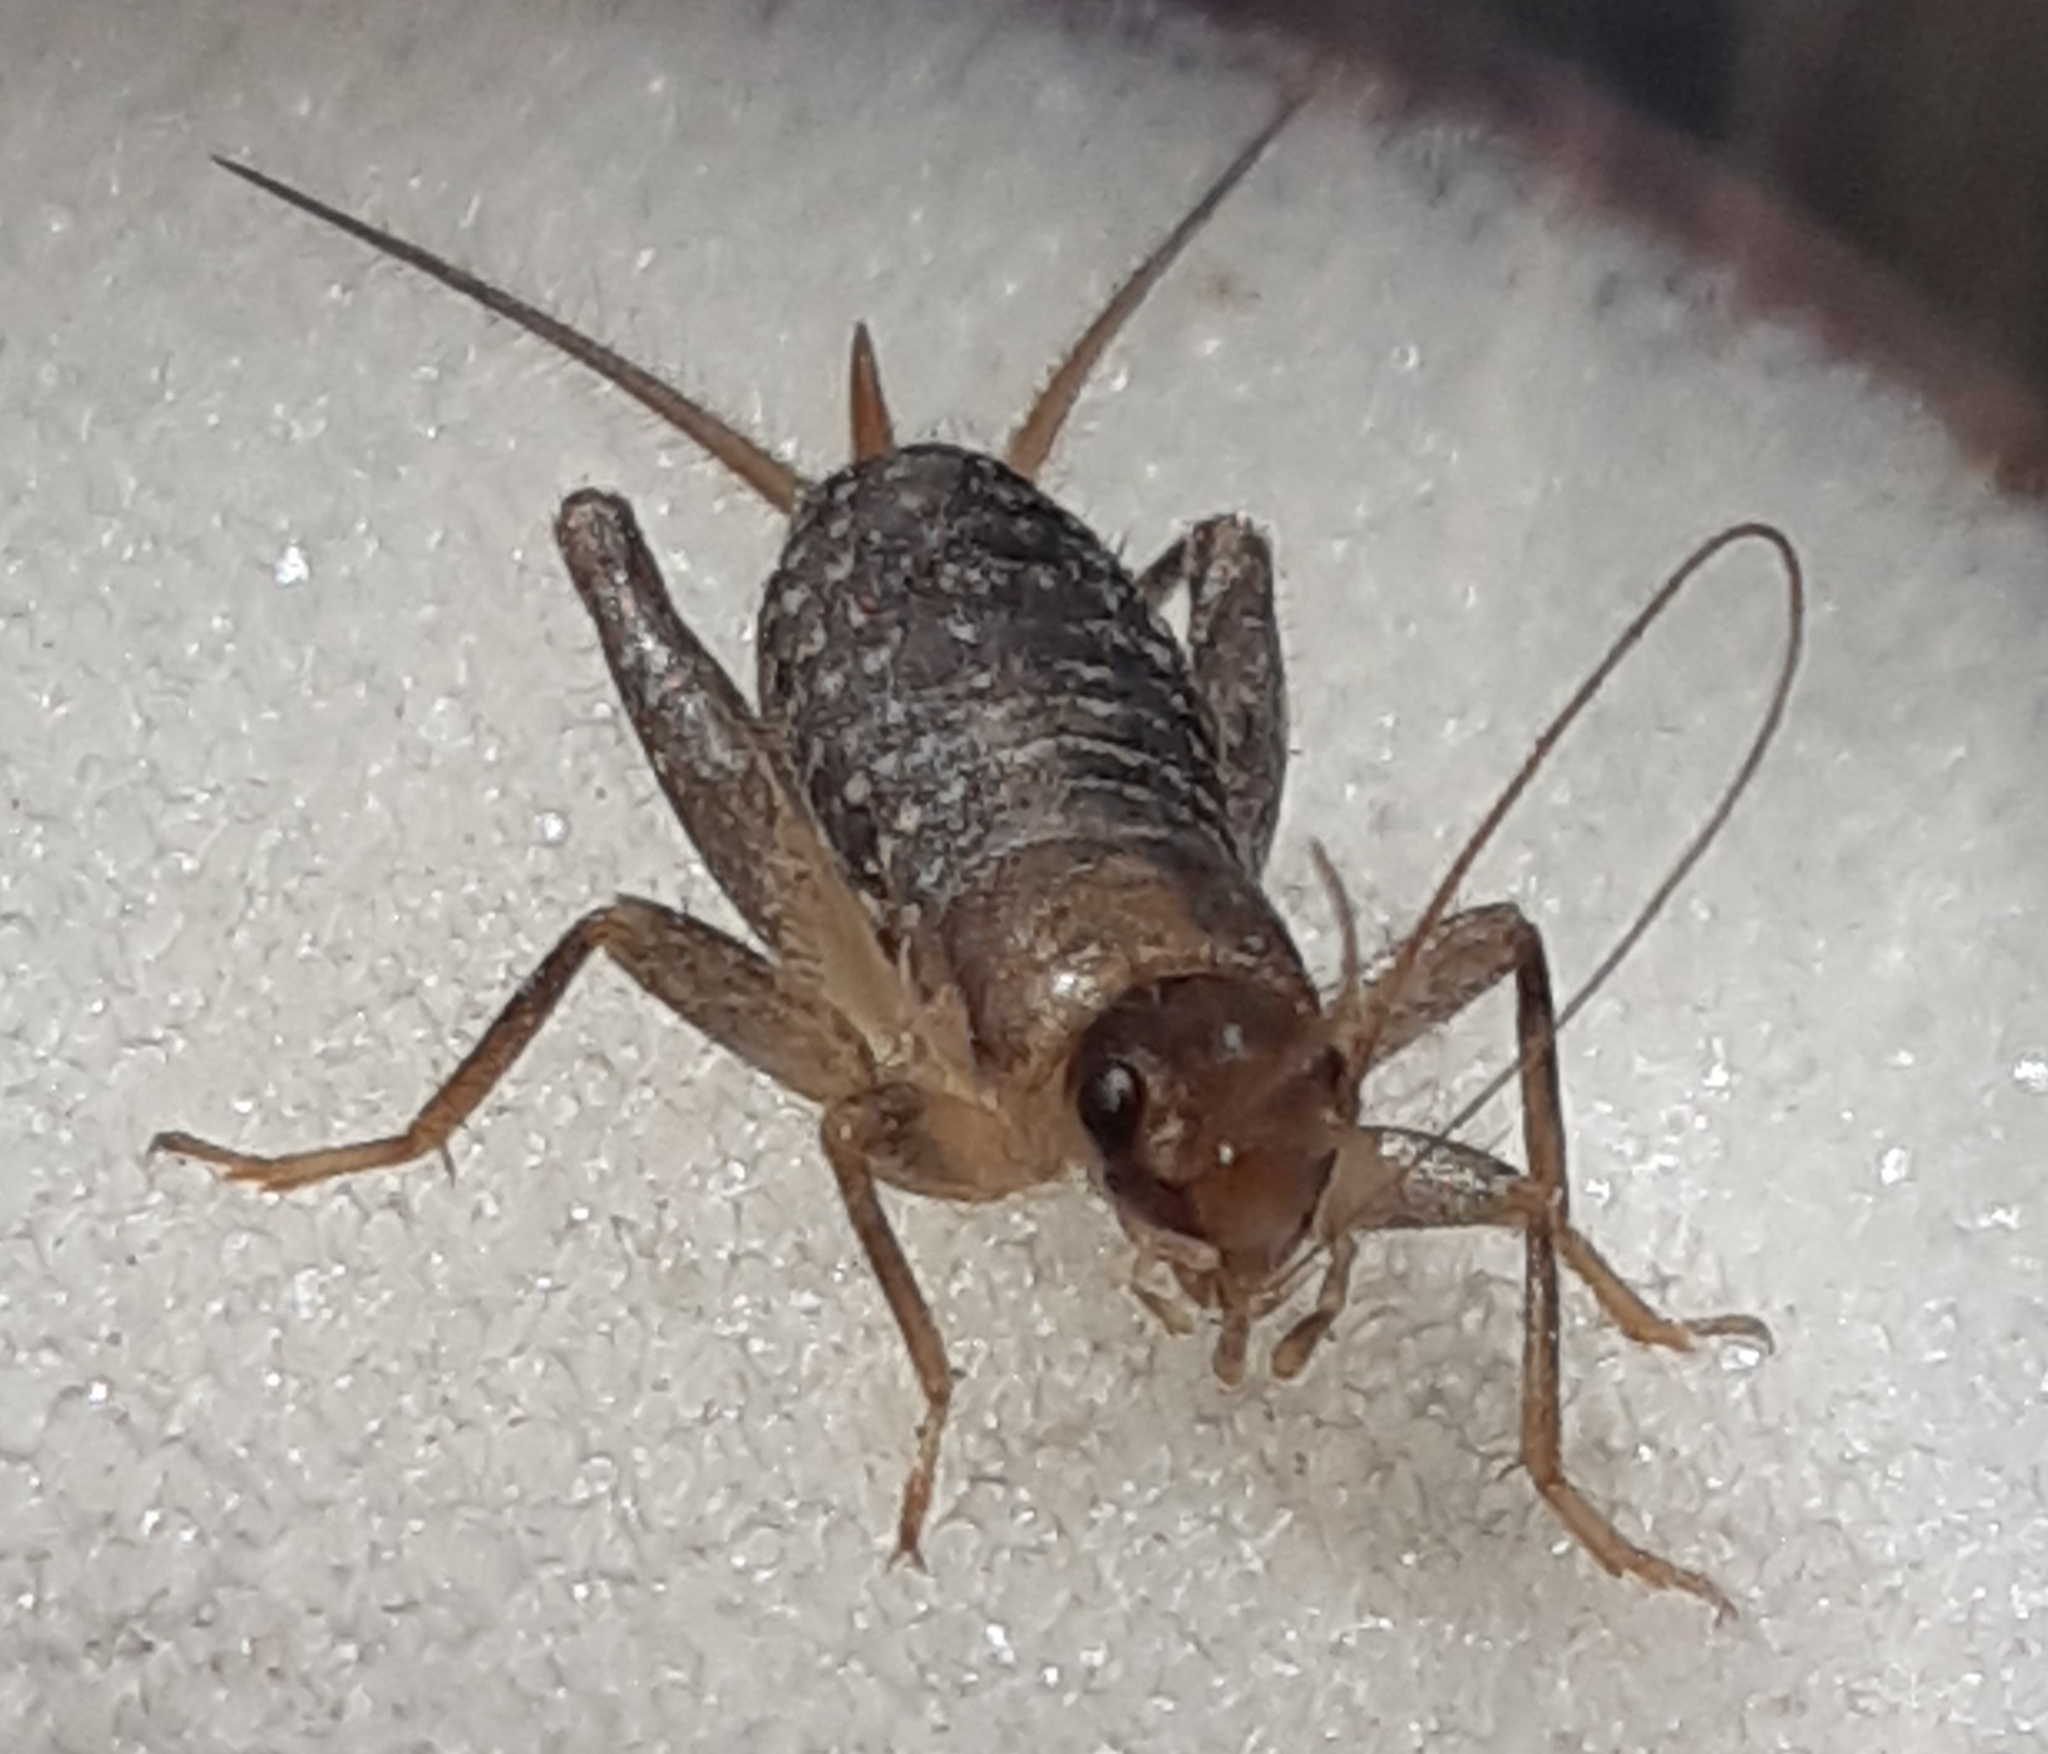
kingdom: Animalia
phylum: Arthropoda
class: Insecta
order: Orthoptera
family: Mogoplistidae
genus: Pseudomogoplistes
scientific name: Pseudomogoplistes squamiger
